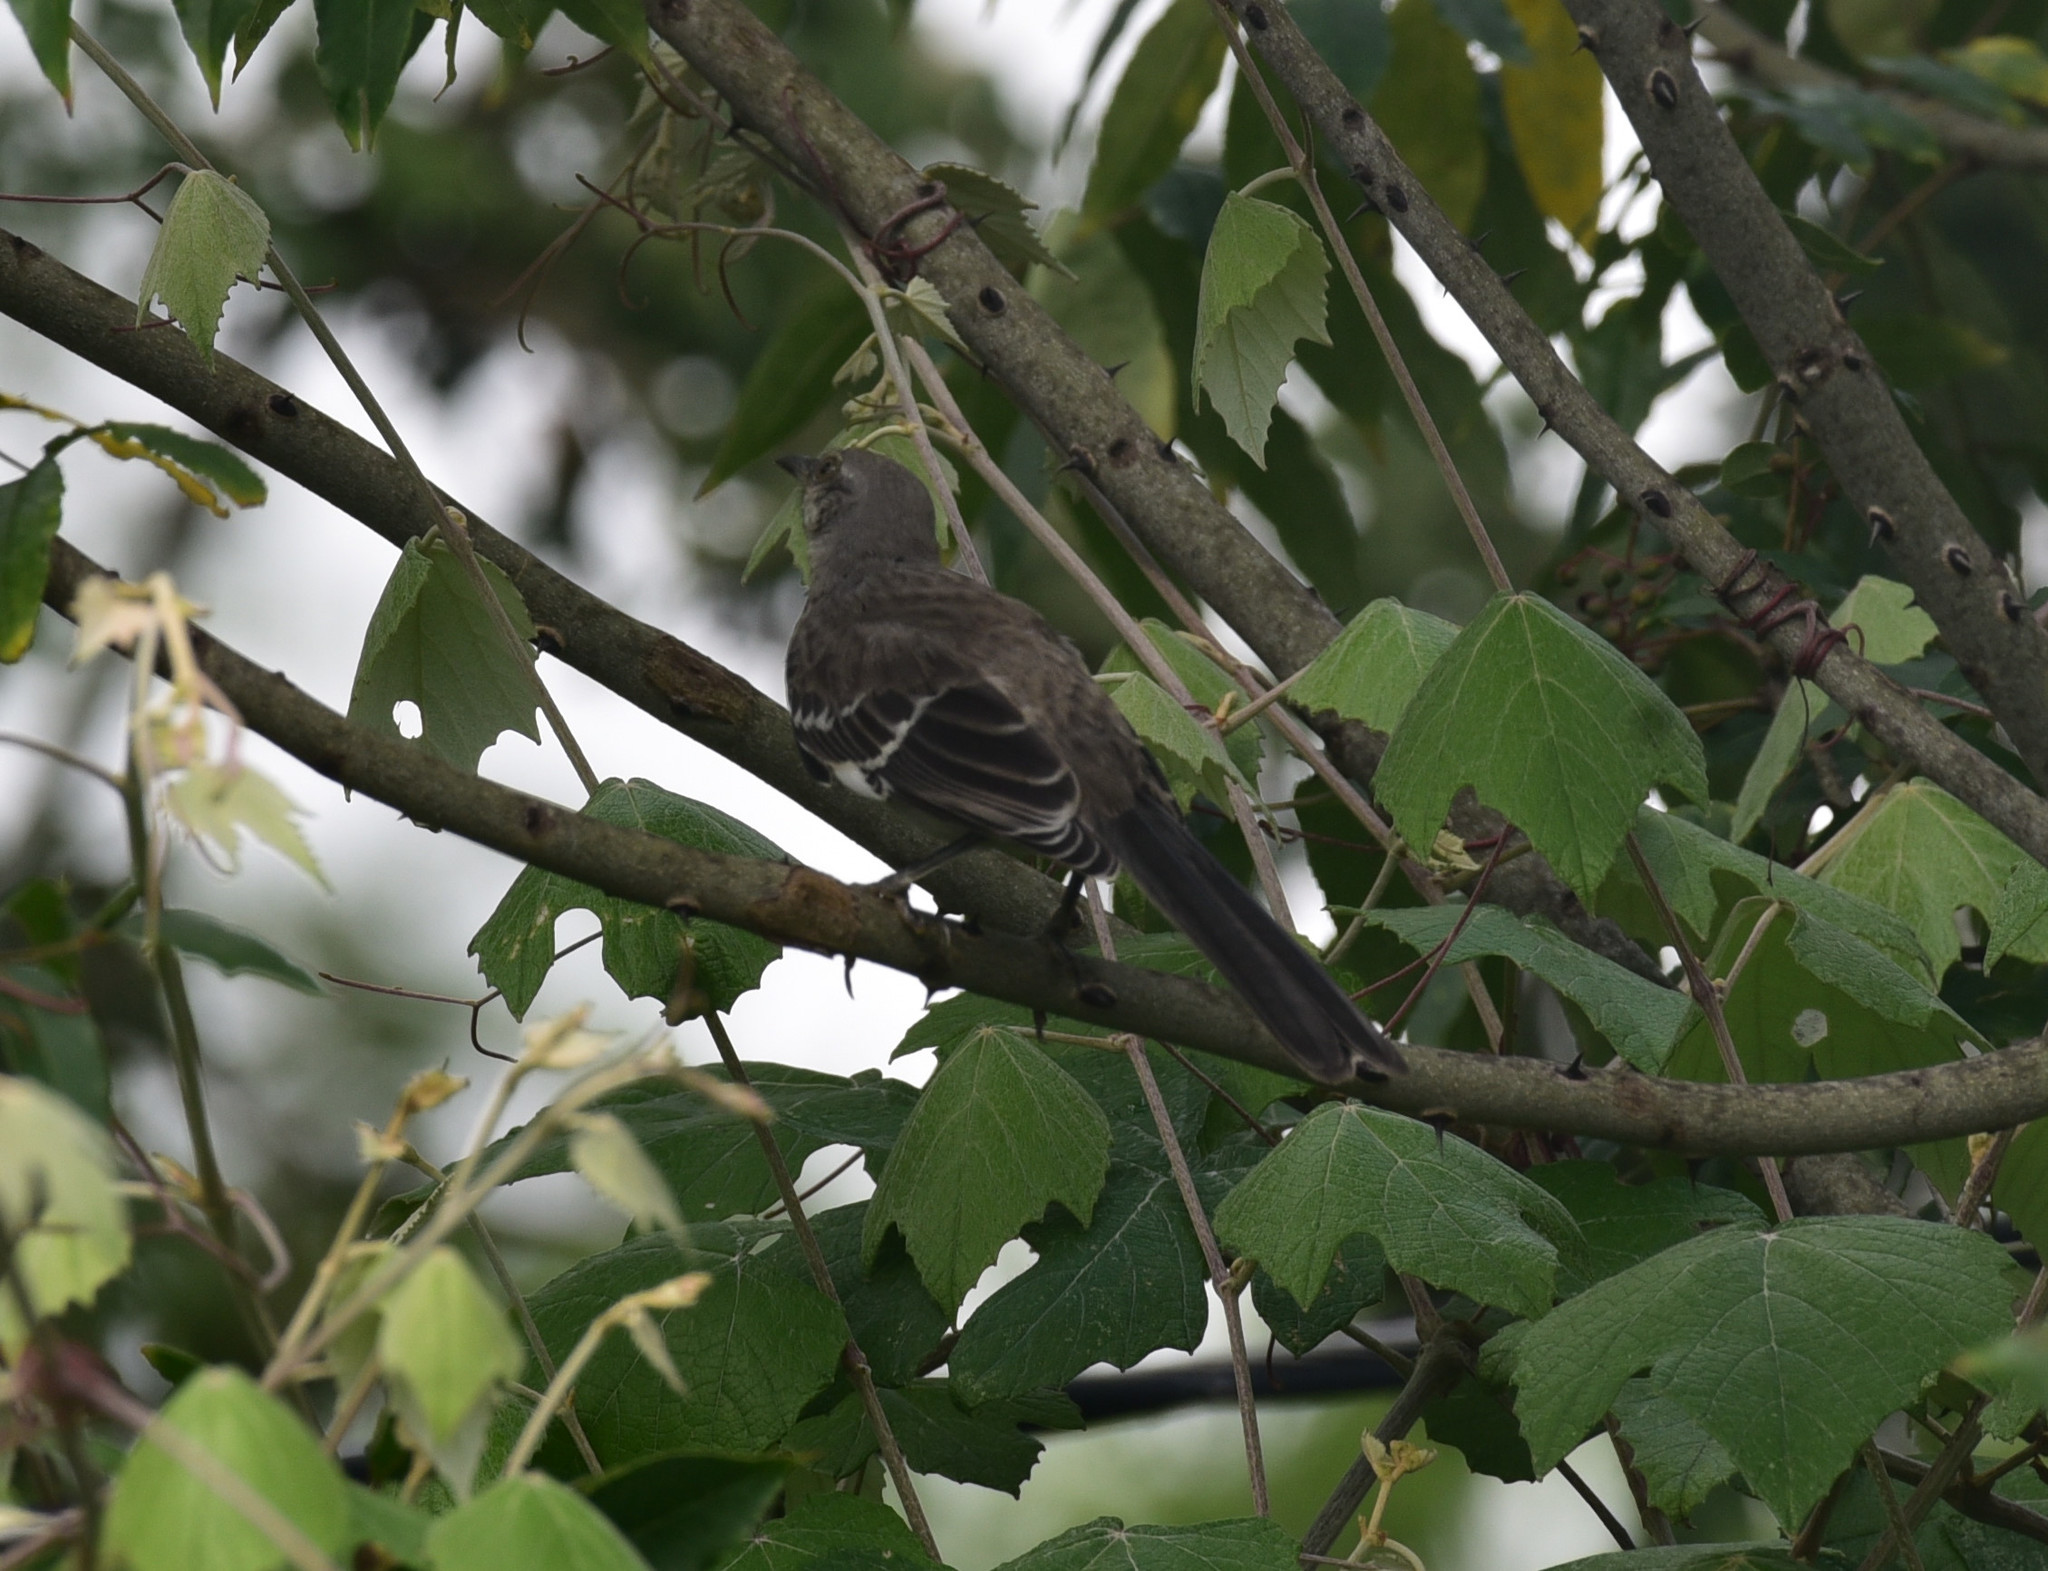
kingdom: Animalia
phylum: Chordata
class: Aves
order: Passeriformes
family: Mimidae
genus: Mimus
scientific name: Mimus polyglottos
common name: Northern mockingbird
